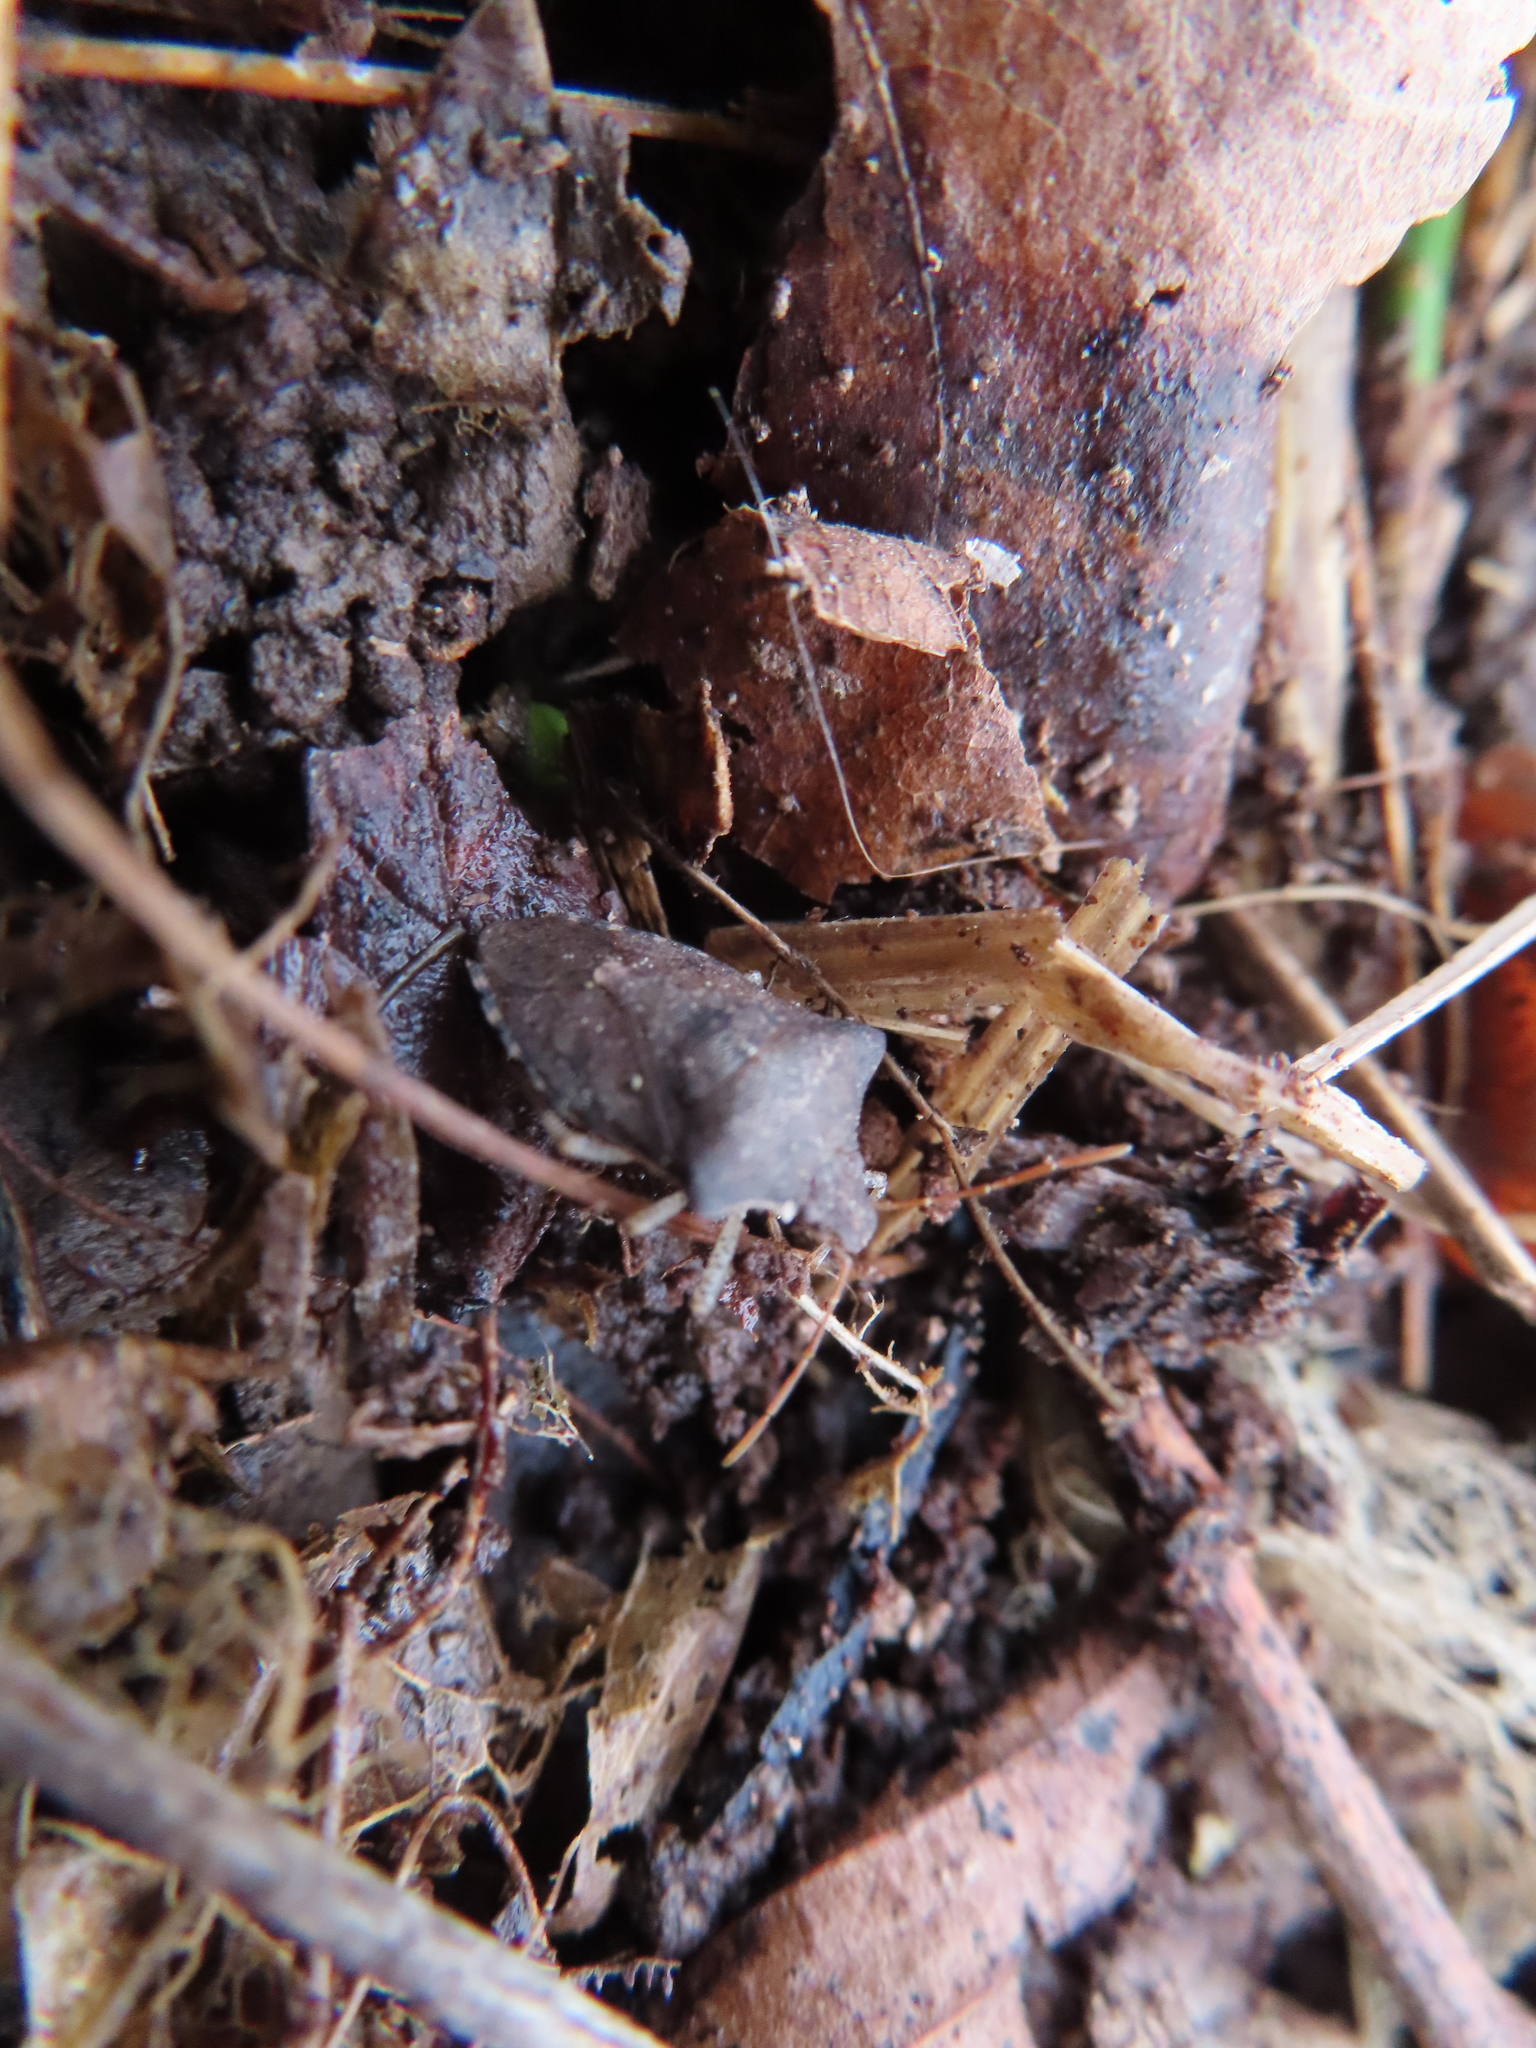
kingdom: Animalia
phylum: Arthropoda
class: Insecta
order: Hemiptera
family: Pentatomidae
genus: Euschistus
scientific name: Euschistus servus
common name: Brown stink bug
